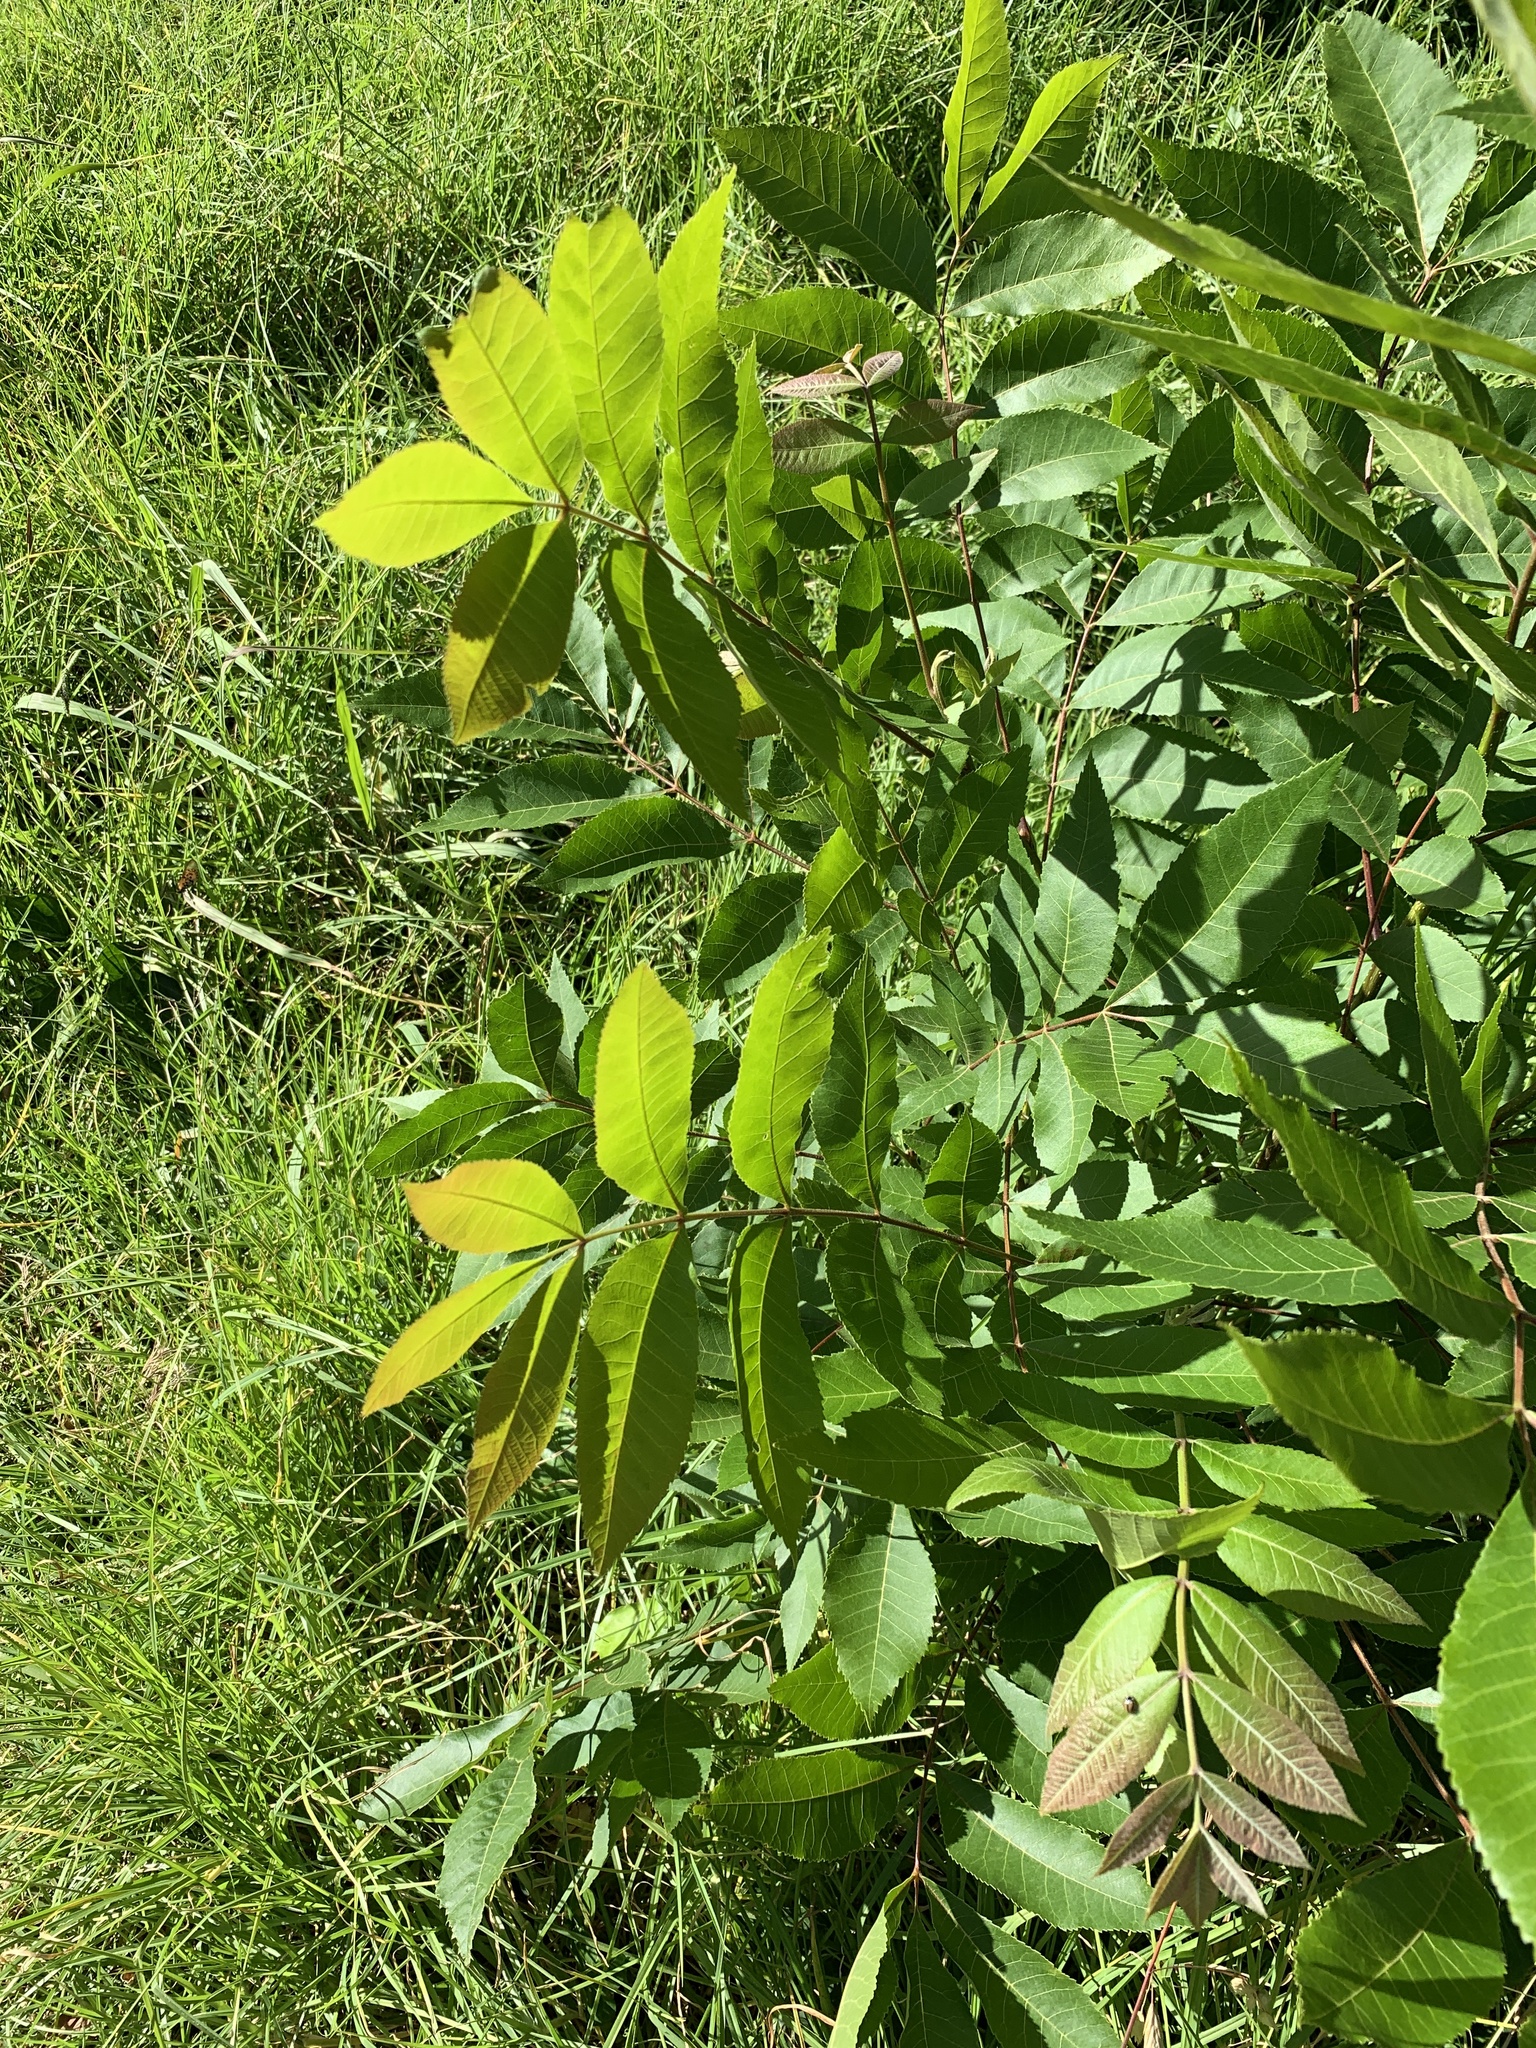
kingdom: Plantae
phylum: Tracheophyta
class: Magnoliopsida
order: Fagales
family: Juglandaceae
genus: Carya
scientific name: Carya illinoinensis
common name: Pecan
